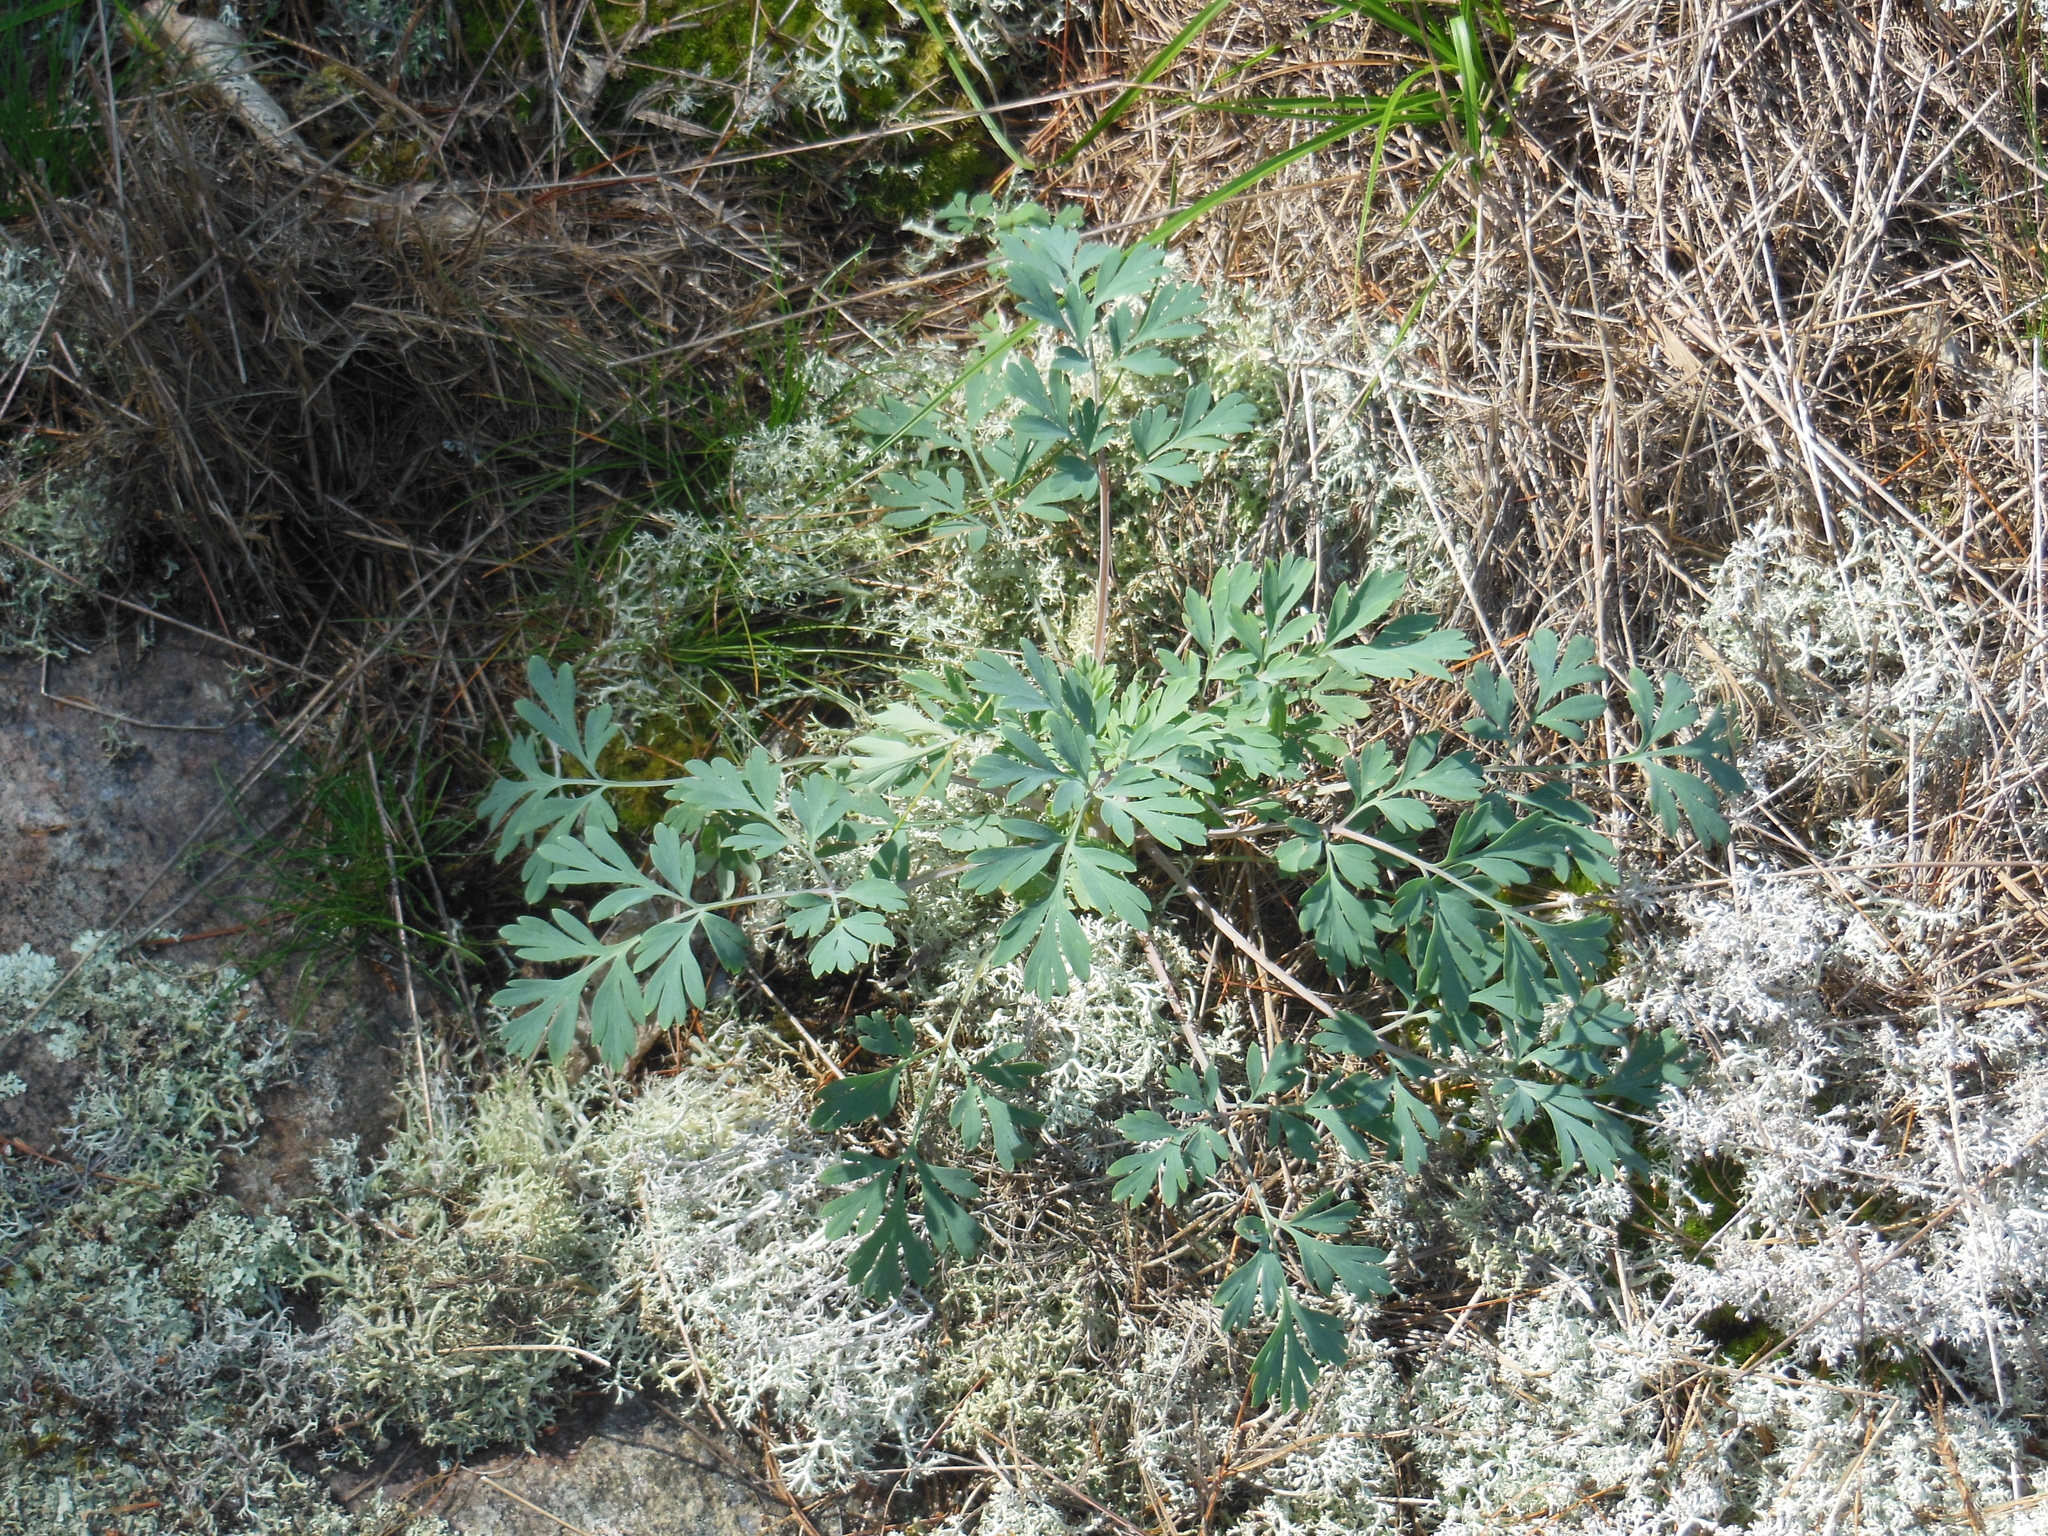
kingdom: Plantae
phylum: Tracheophyta
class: Magnoliopsida
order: Ranunculales
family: Papaveraceae
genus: Capnoides
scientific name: Capnoides sempervirens
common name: Rock harlequin
